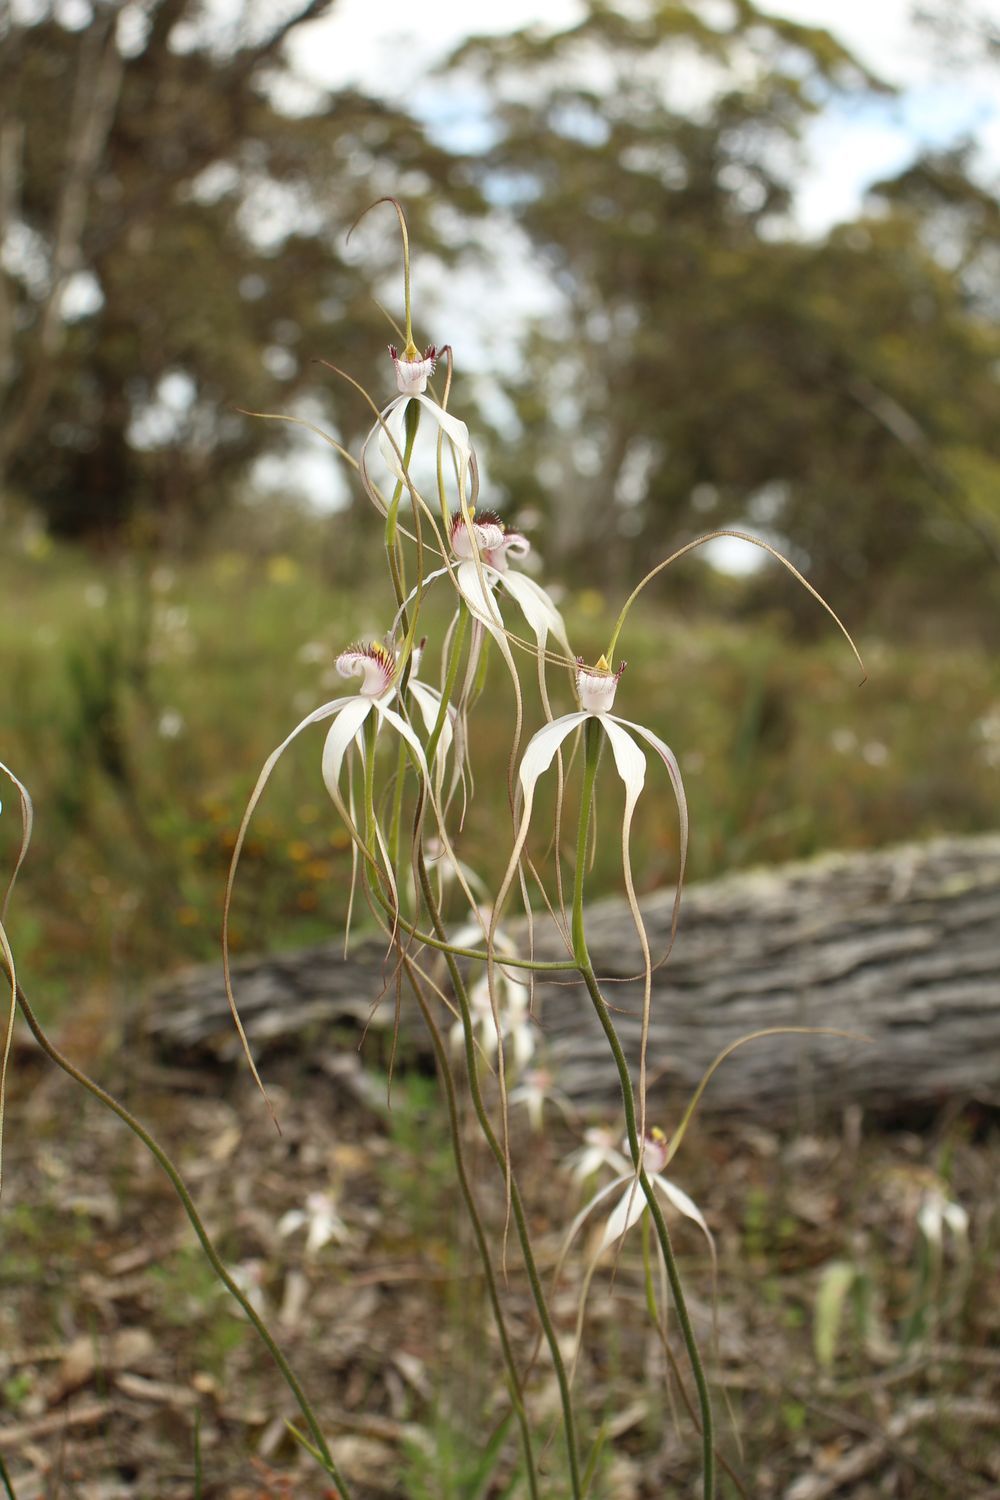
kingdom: Plantae
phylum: Tracheophyta
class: Liliopsida
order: Asparagales
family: Orchidaceae
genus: Caladenia
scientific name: Caladenia longicauda
